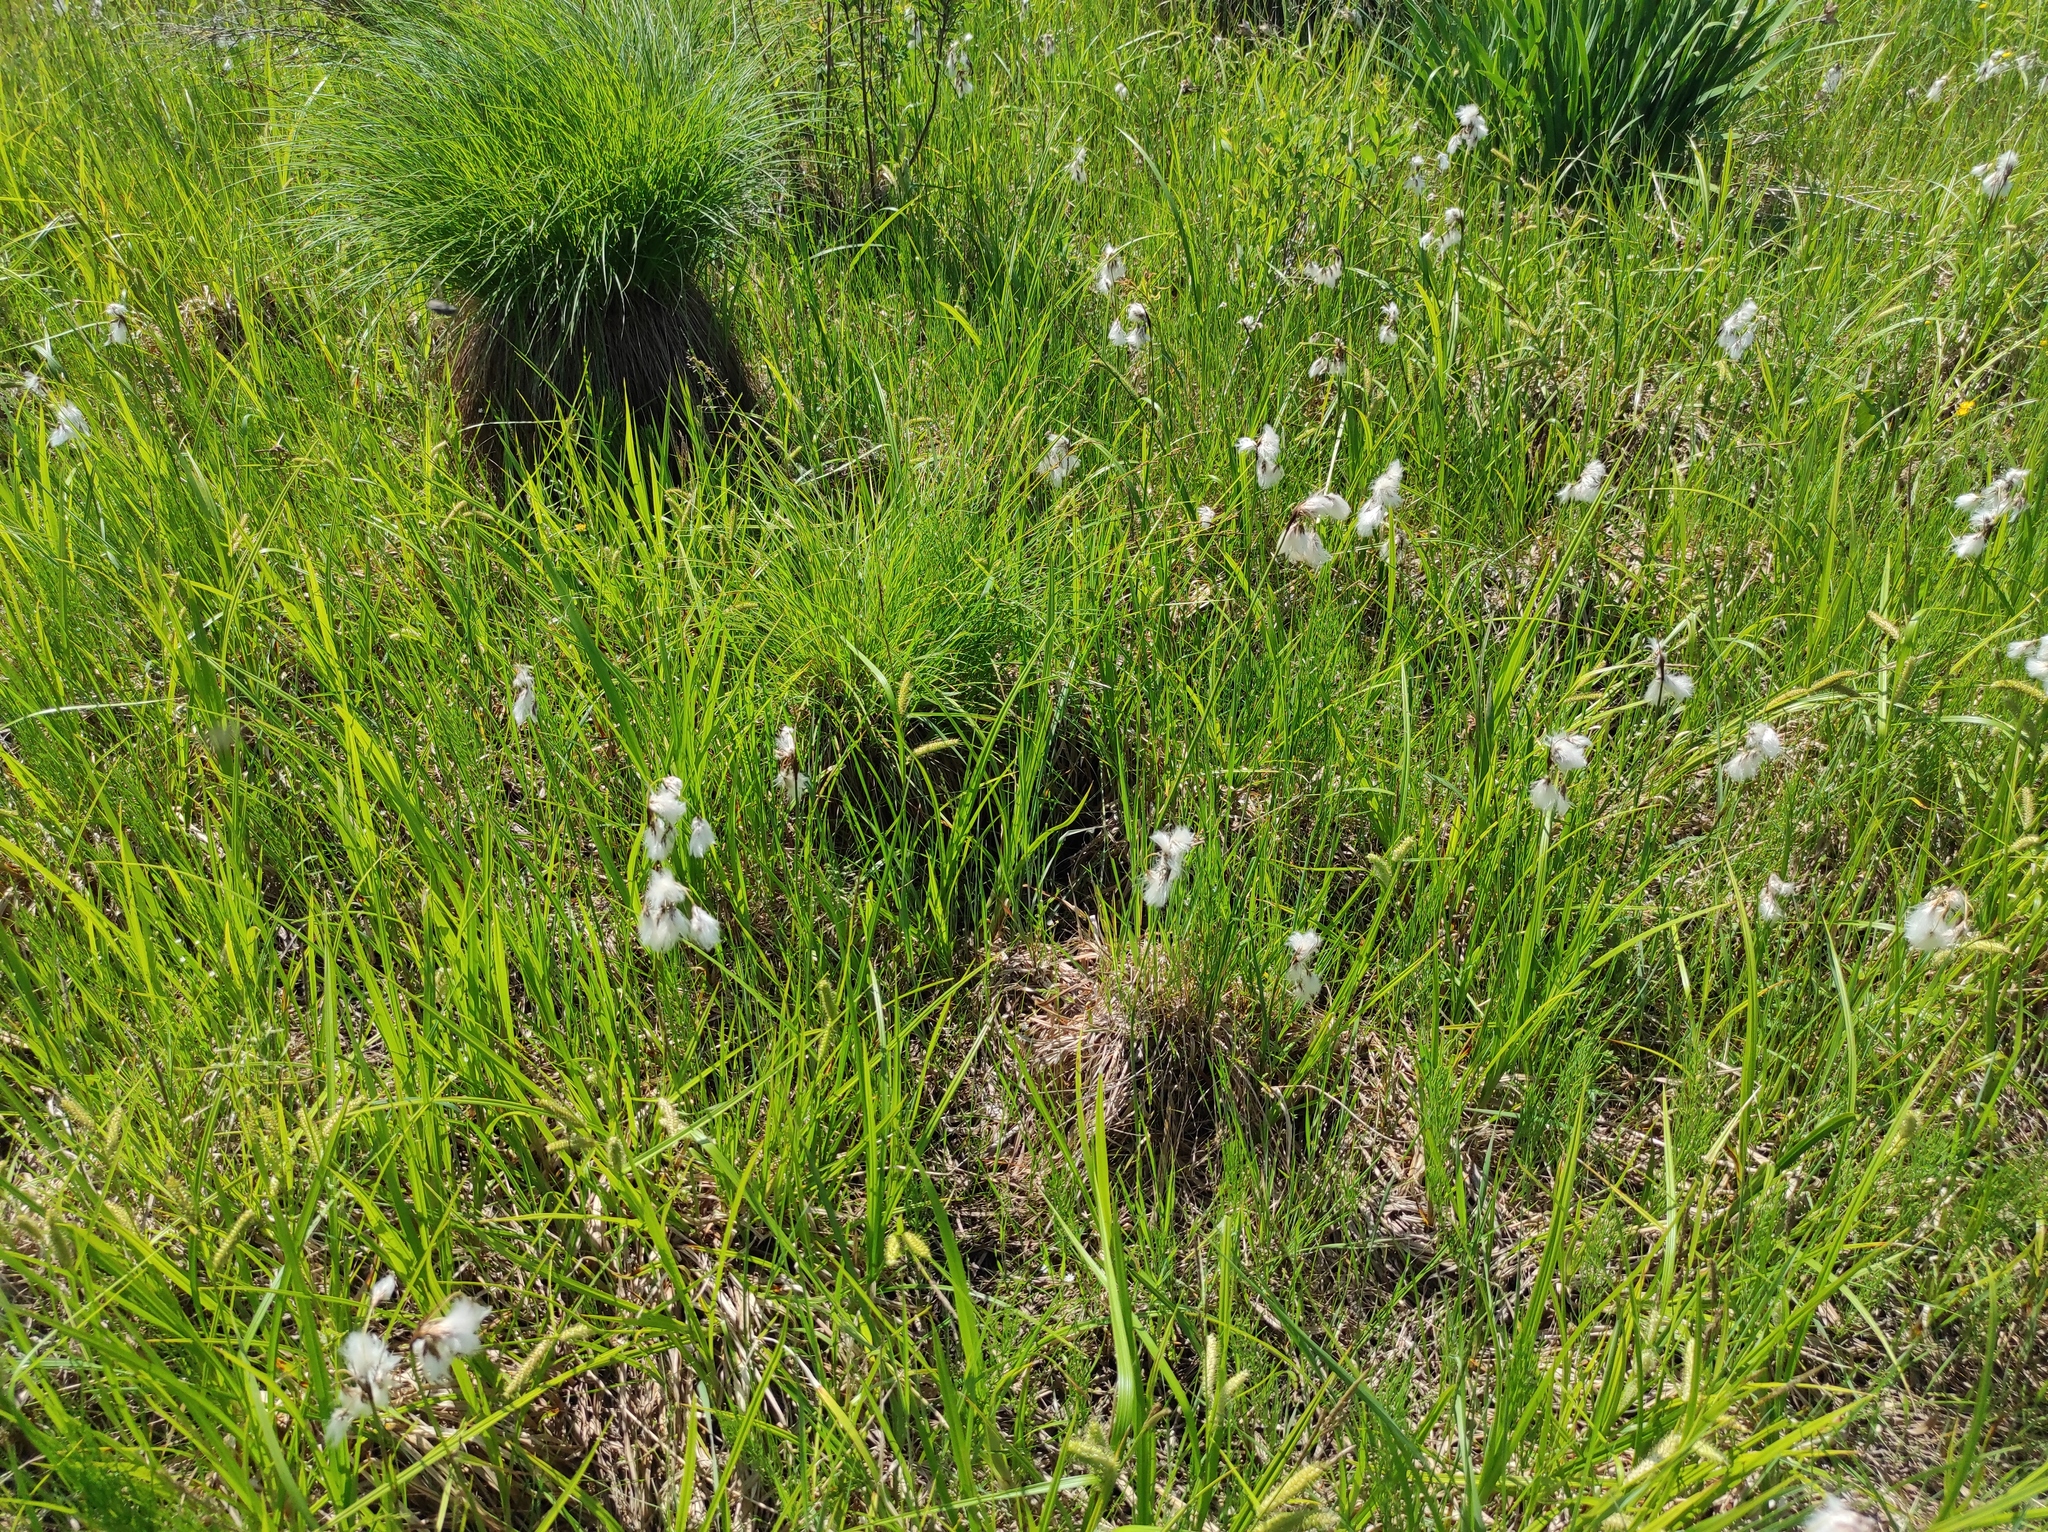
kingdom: Plantae
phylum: Tracheophyta
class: Liliopsida
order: Poales
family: Cyperaceae
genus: Eriophorum
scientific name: Eriophorum gracile
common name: Slender cottongrass
